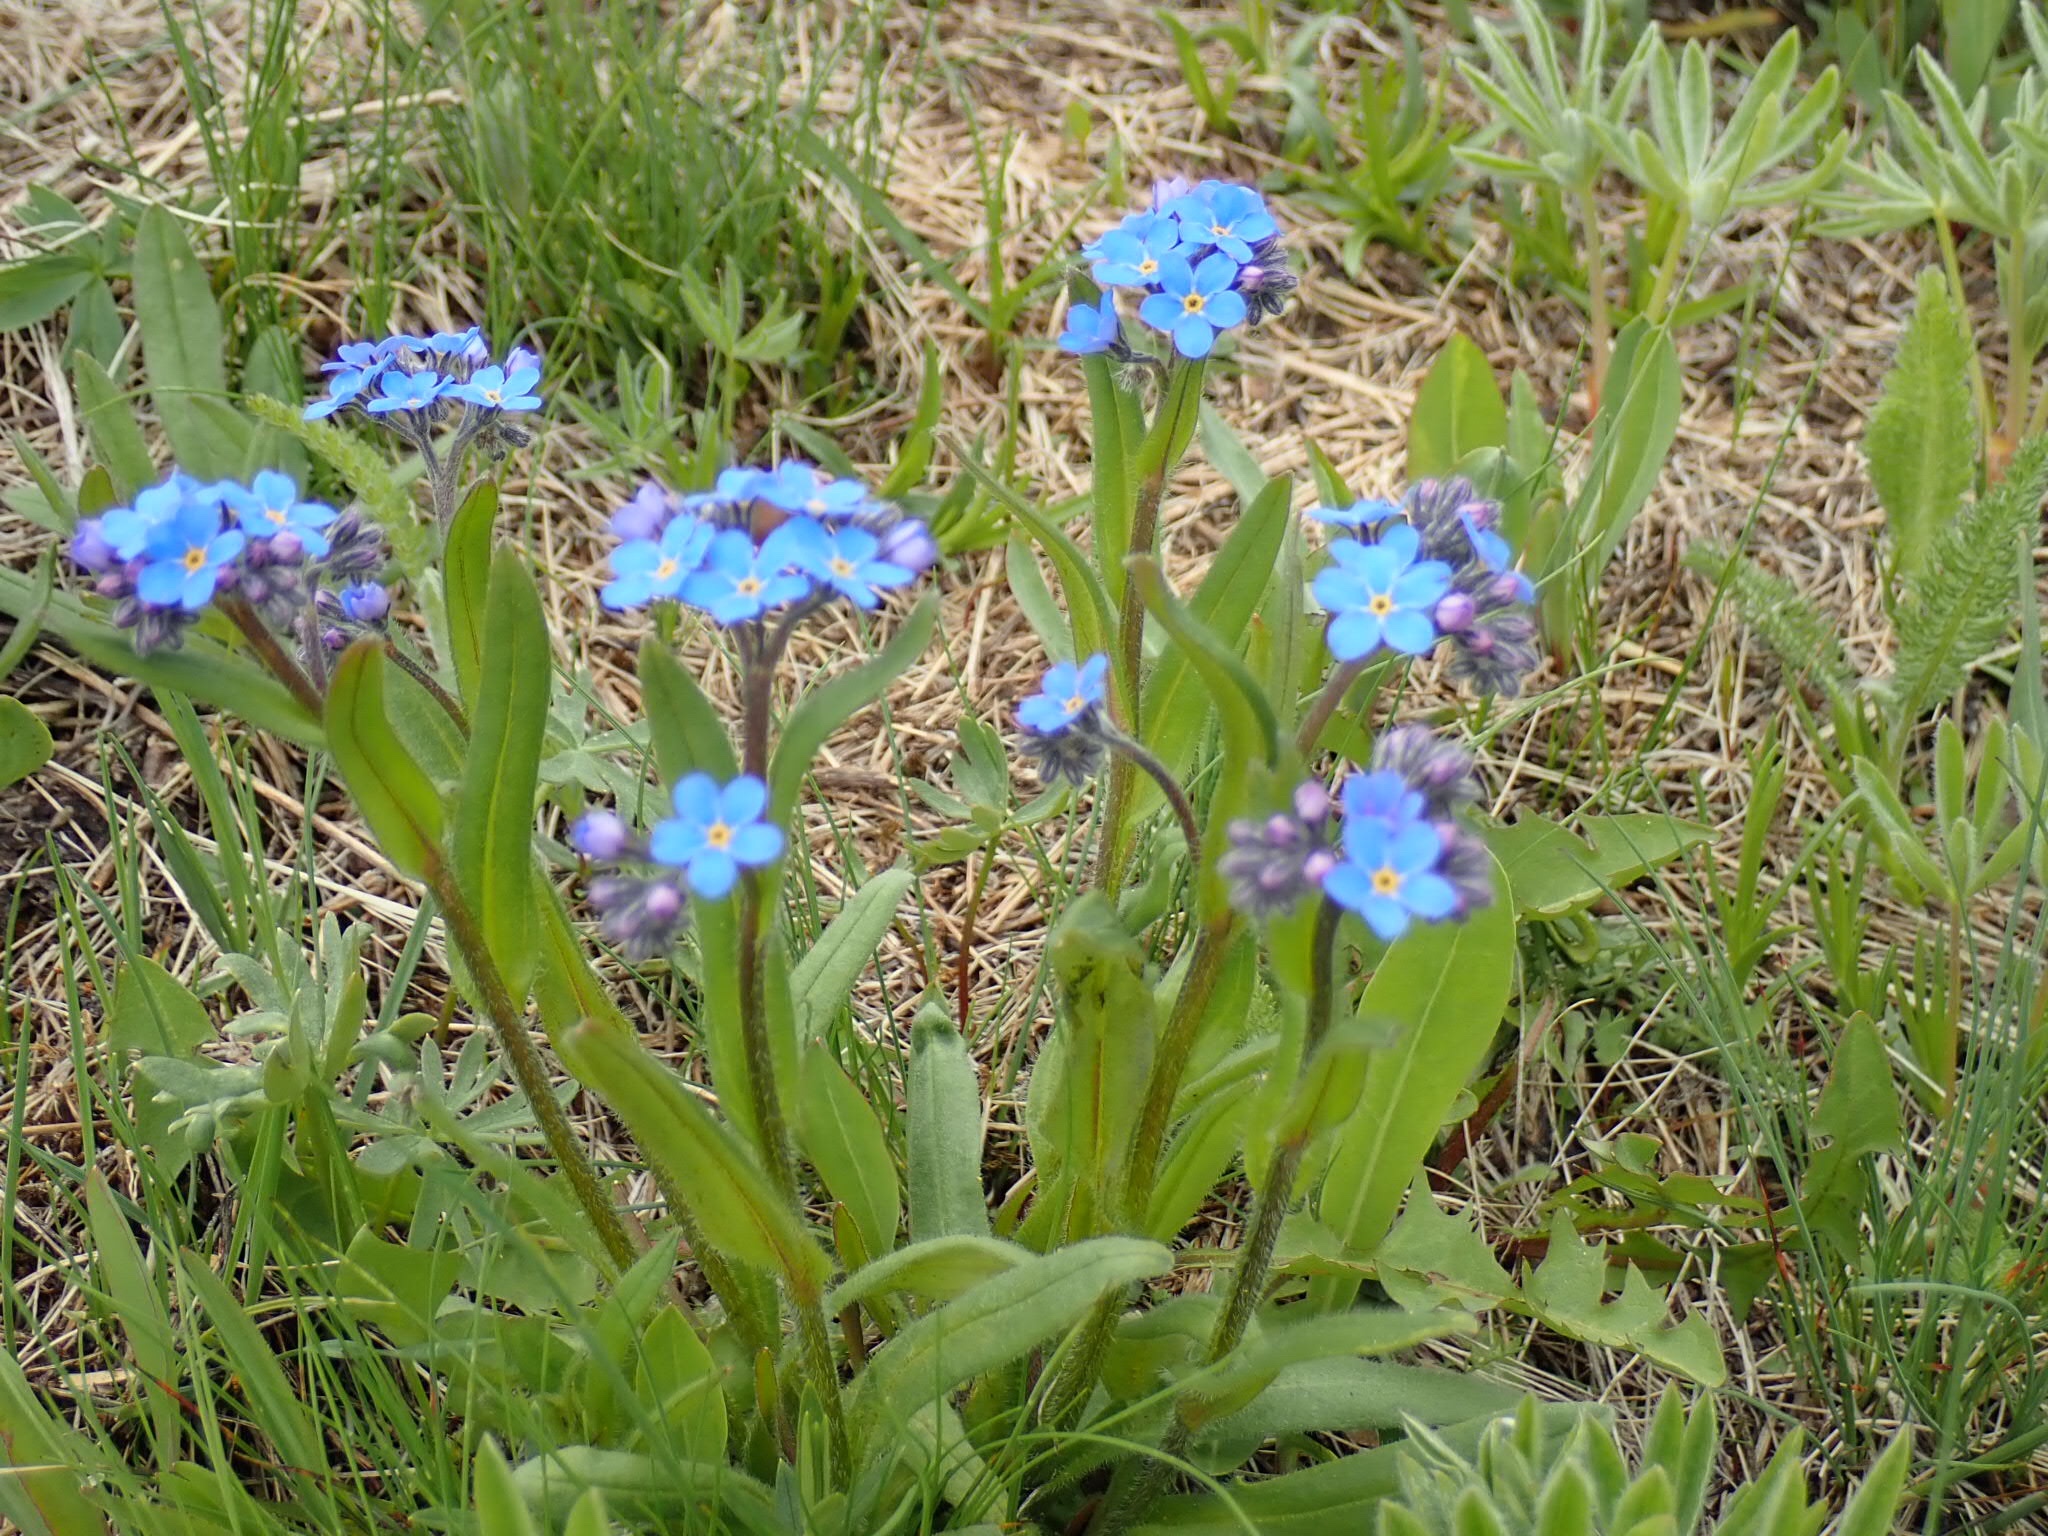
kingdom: Plantae
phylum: Tracheophyta
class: Magnoliopsida
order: Boraginales
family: Boraginaceae
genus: Myosotis
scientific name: Myosotis asiatica
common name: Asian forget-me-not
